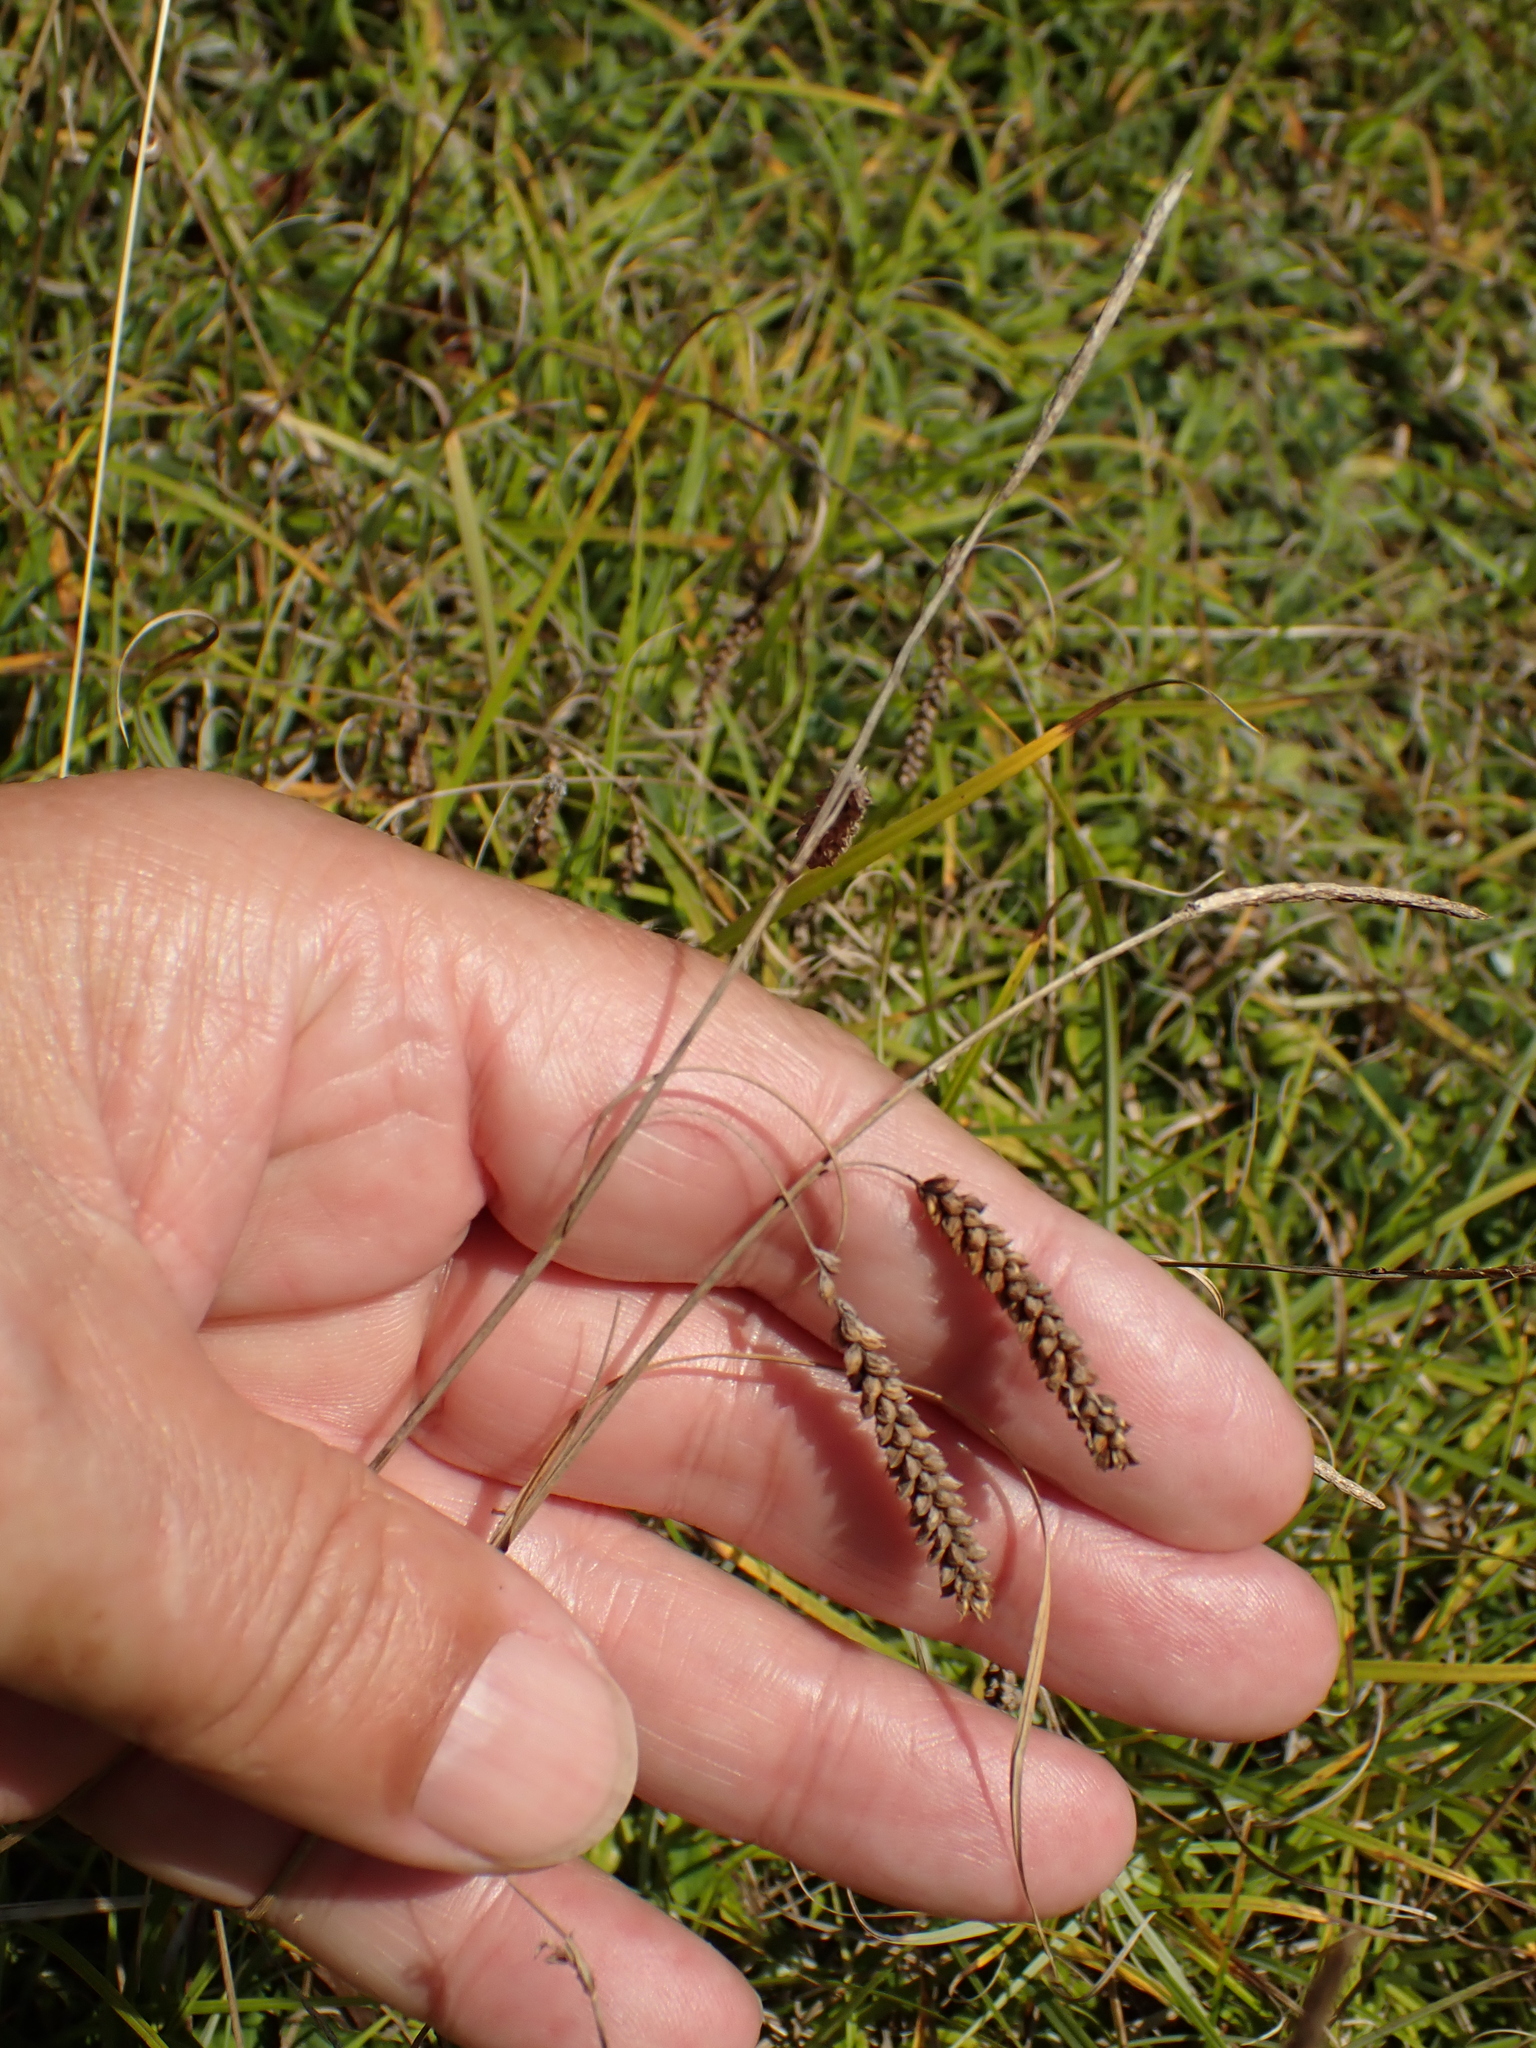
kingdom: Plantae
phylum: Tracheophyta
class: Liliopsida
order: Poales
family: Cyperaceae
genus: Carex
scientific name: Carex flacca
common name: Glaucous sedge
